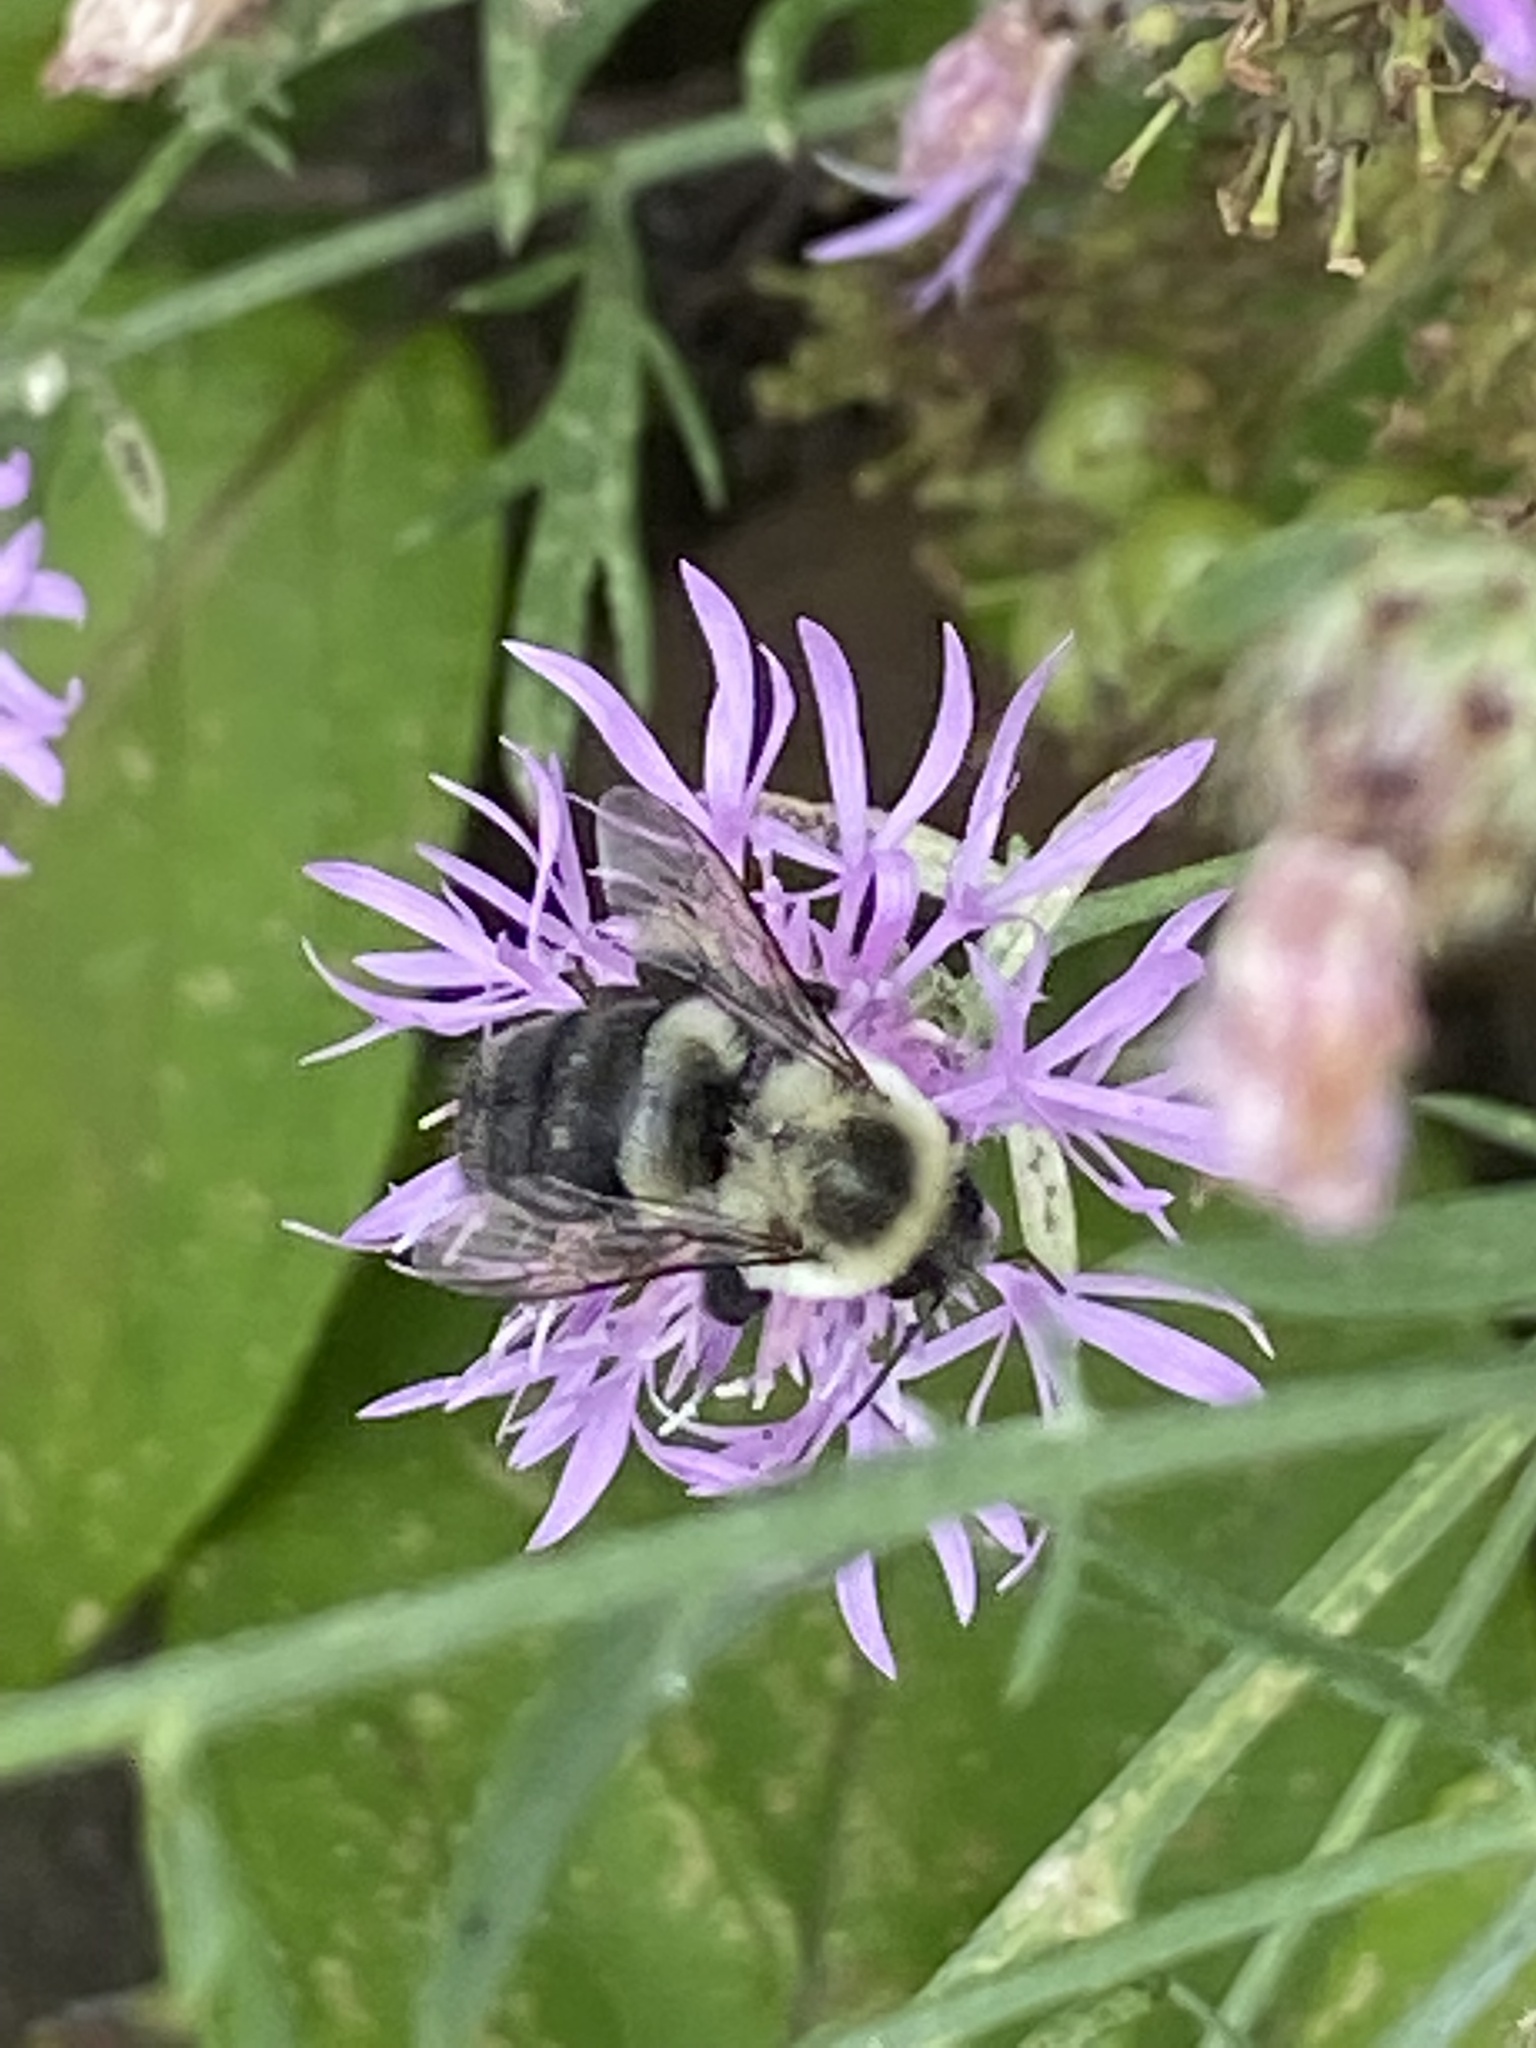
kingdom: Animalia
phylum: Arthropoda
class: Insecta
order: Hymenoptera
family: Apidae
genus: Bombus
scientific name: Bombus impatiens
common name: Common eastern bumble bee
